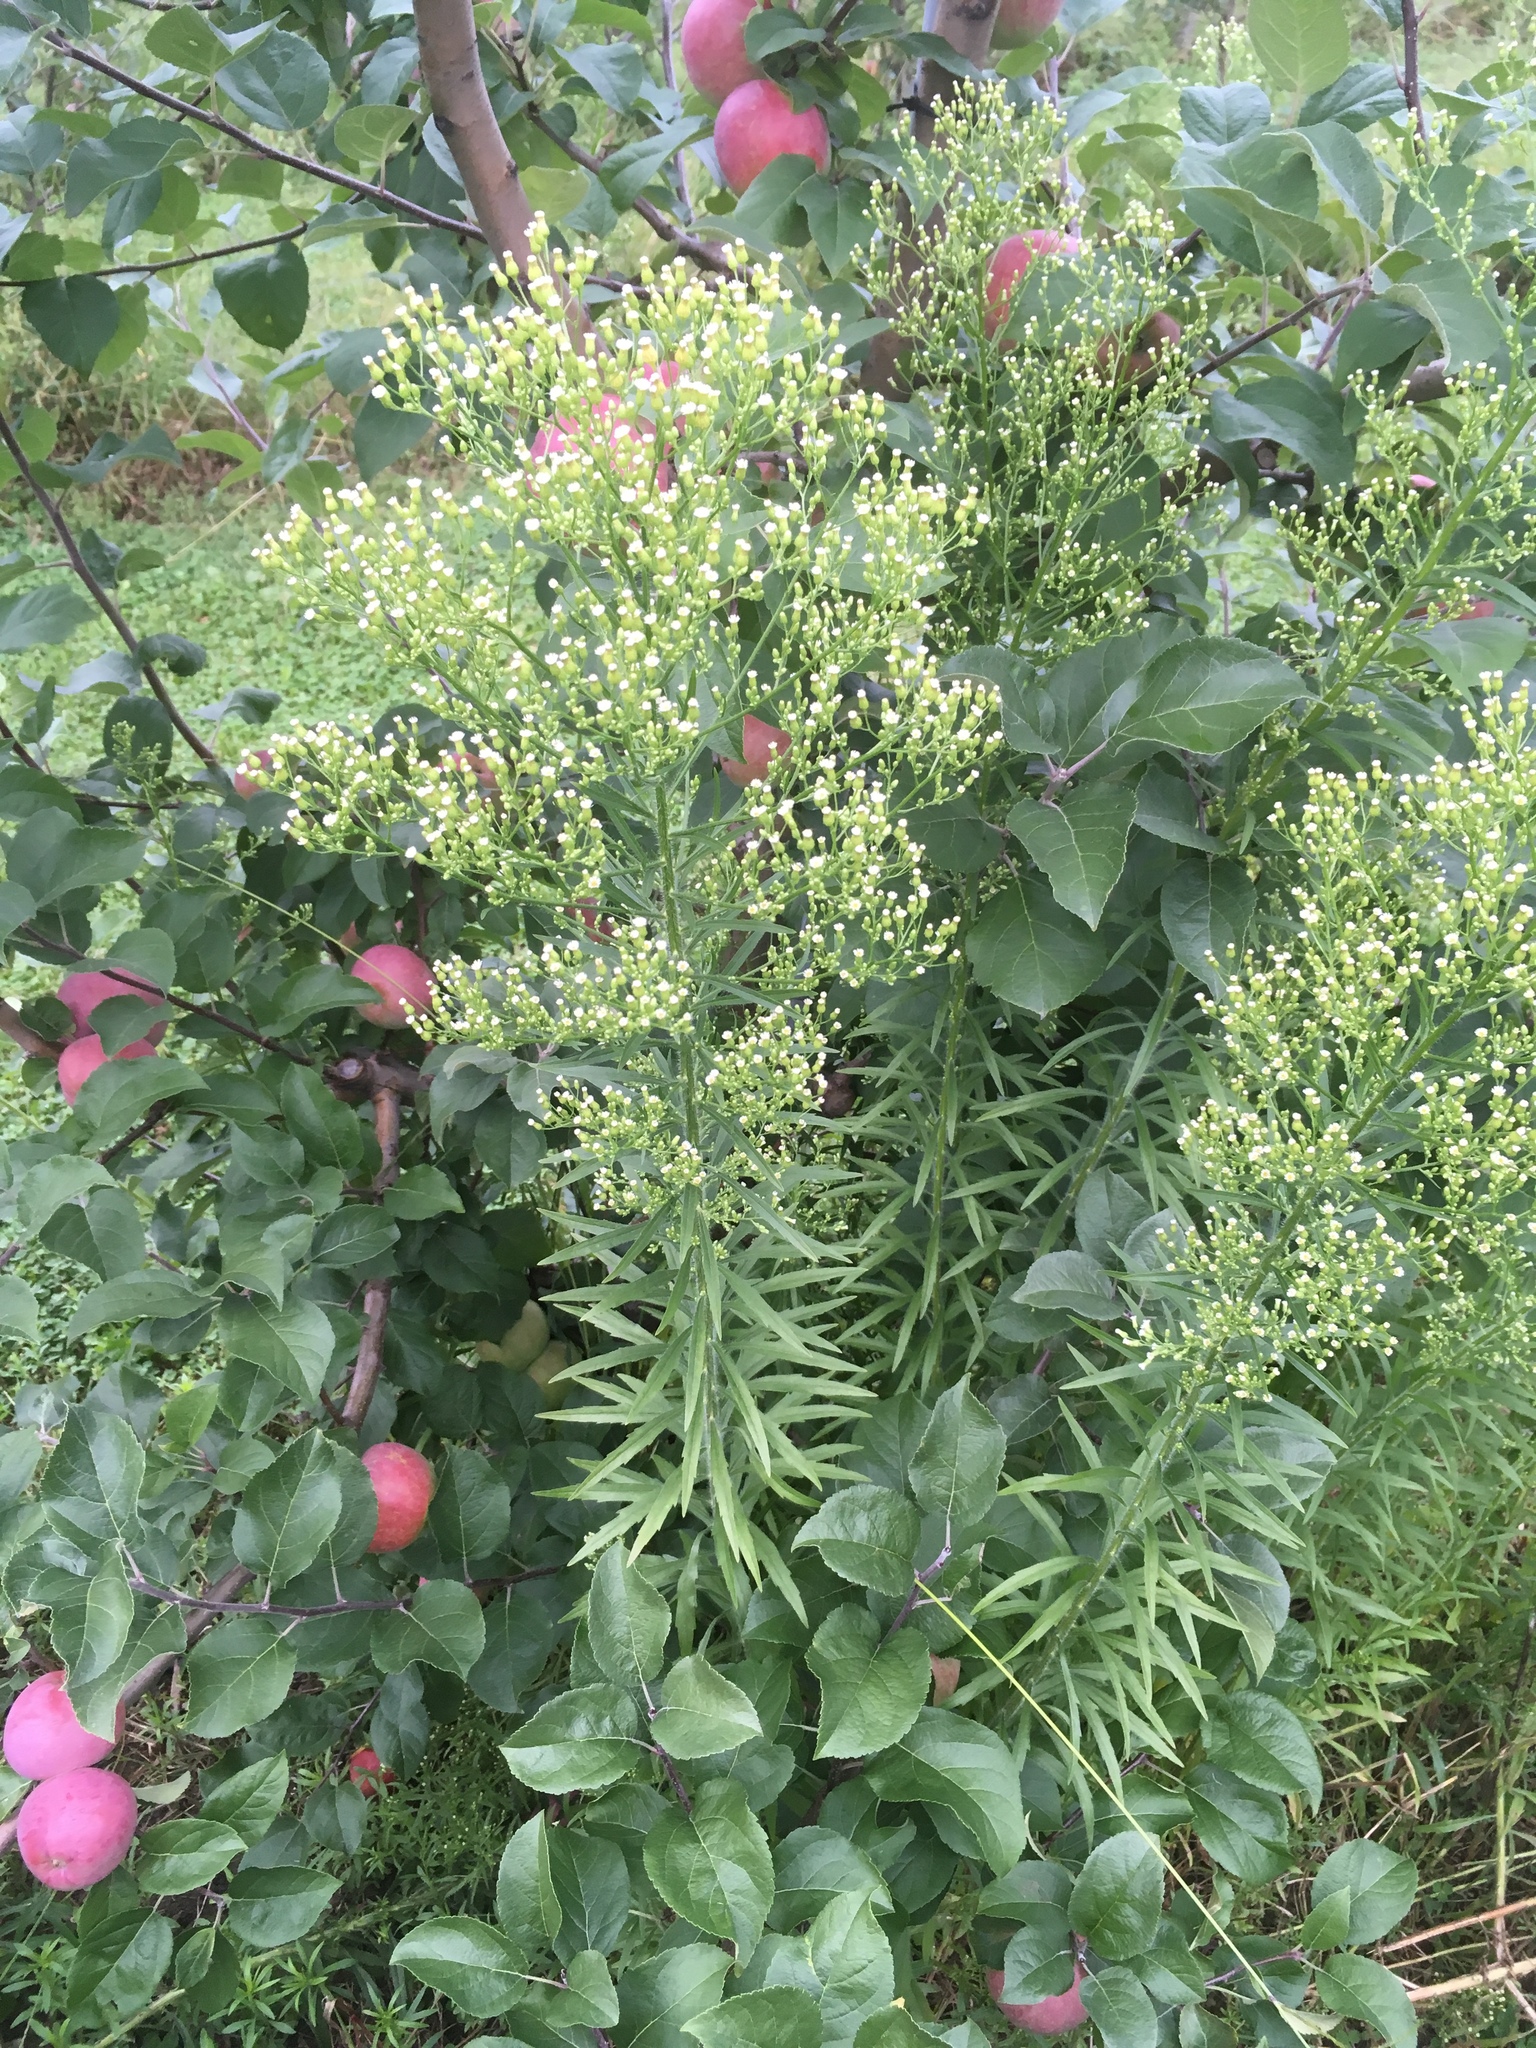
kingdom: Plantae
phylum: Tracheophyta
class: Magnoliopsida
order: Asterales
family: Asteraceae
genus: Erigeron
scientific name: Erigeron canadensis
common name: Canadian fleabane
